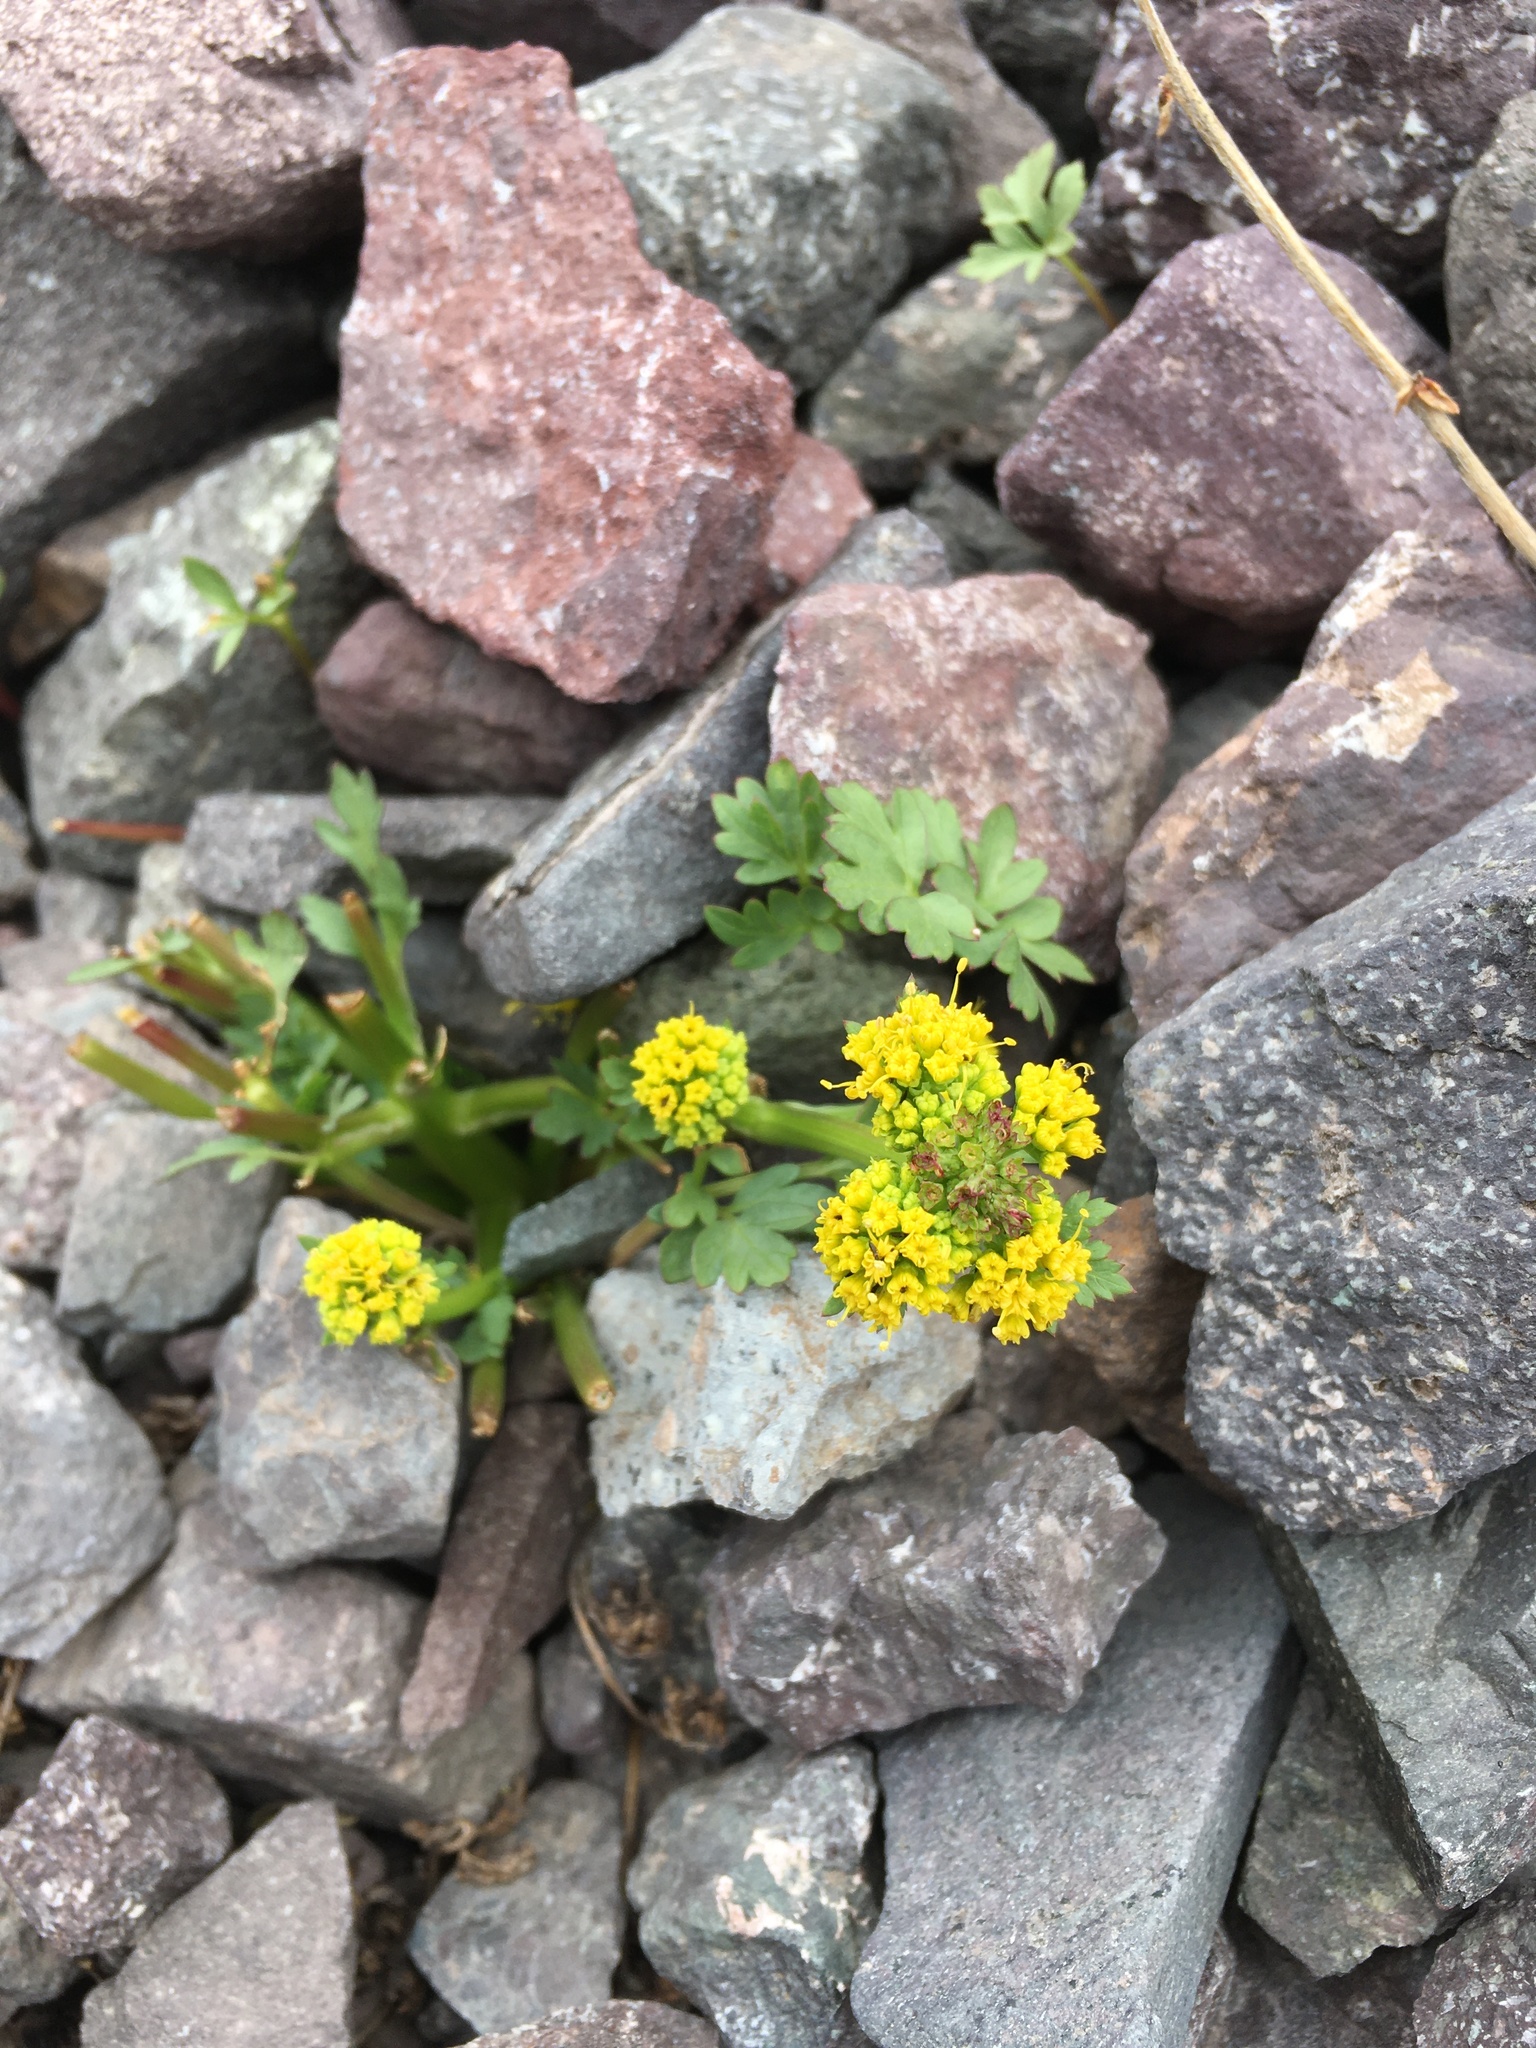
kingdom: Plantae
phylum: Tracheophyta
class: Magnoliopsida
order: Apiales
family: Apiaceae
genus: Sanicula
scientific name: Sanicula graveolens
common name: Sierra sanicle
